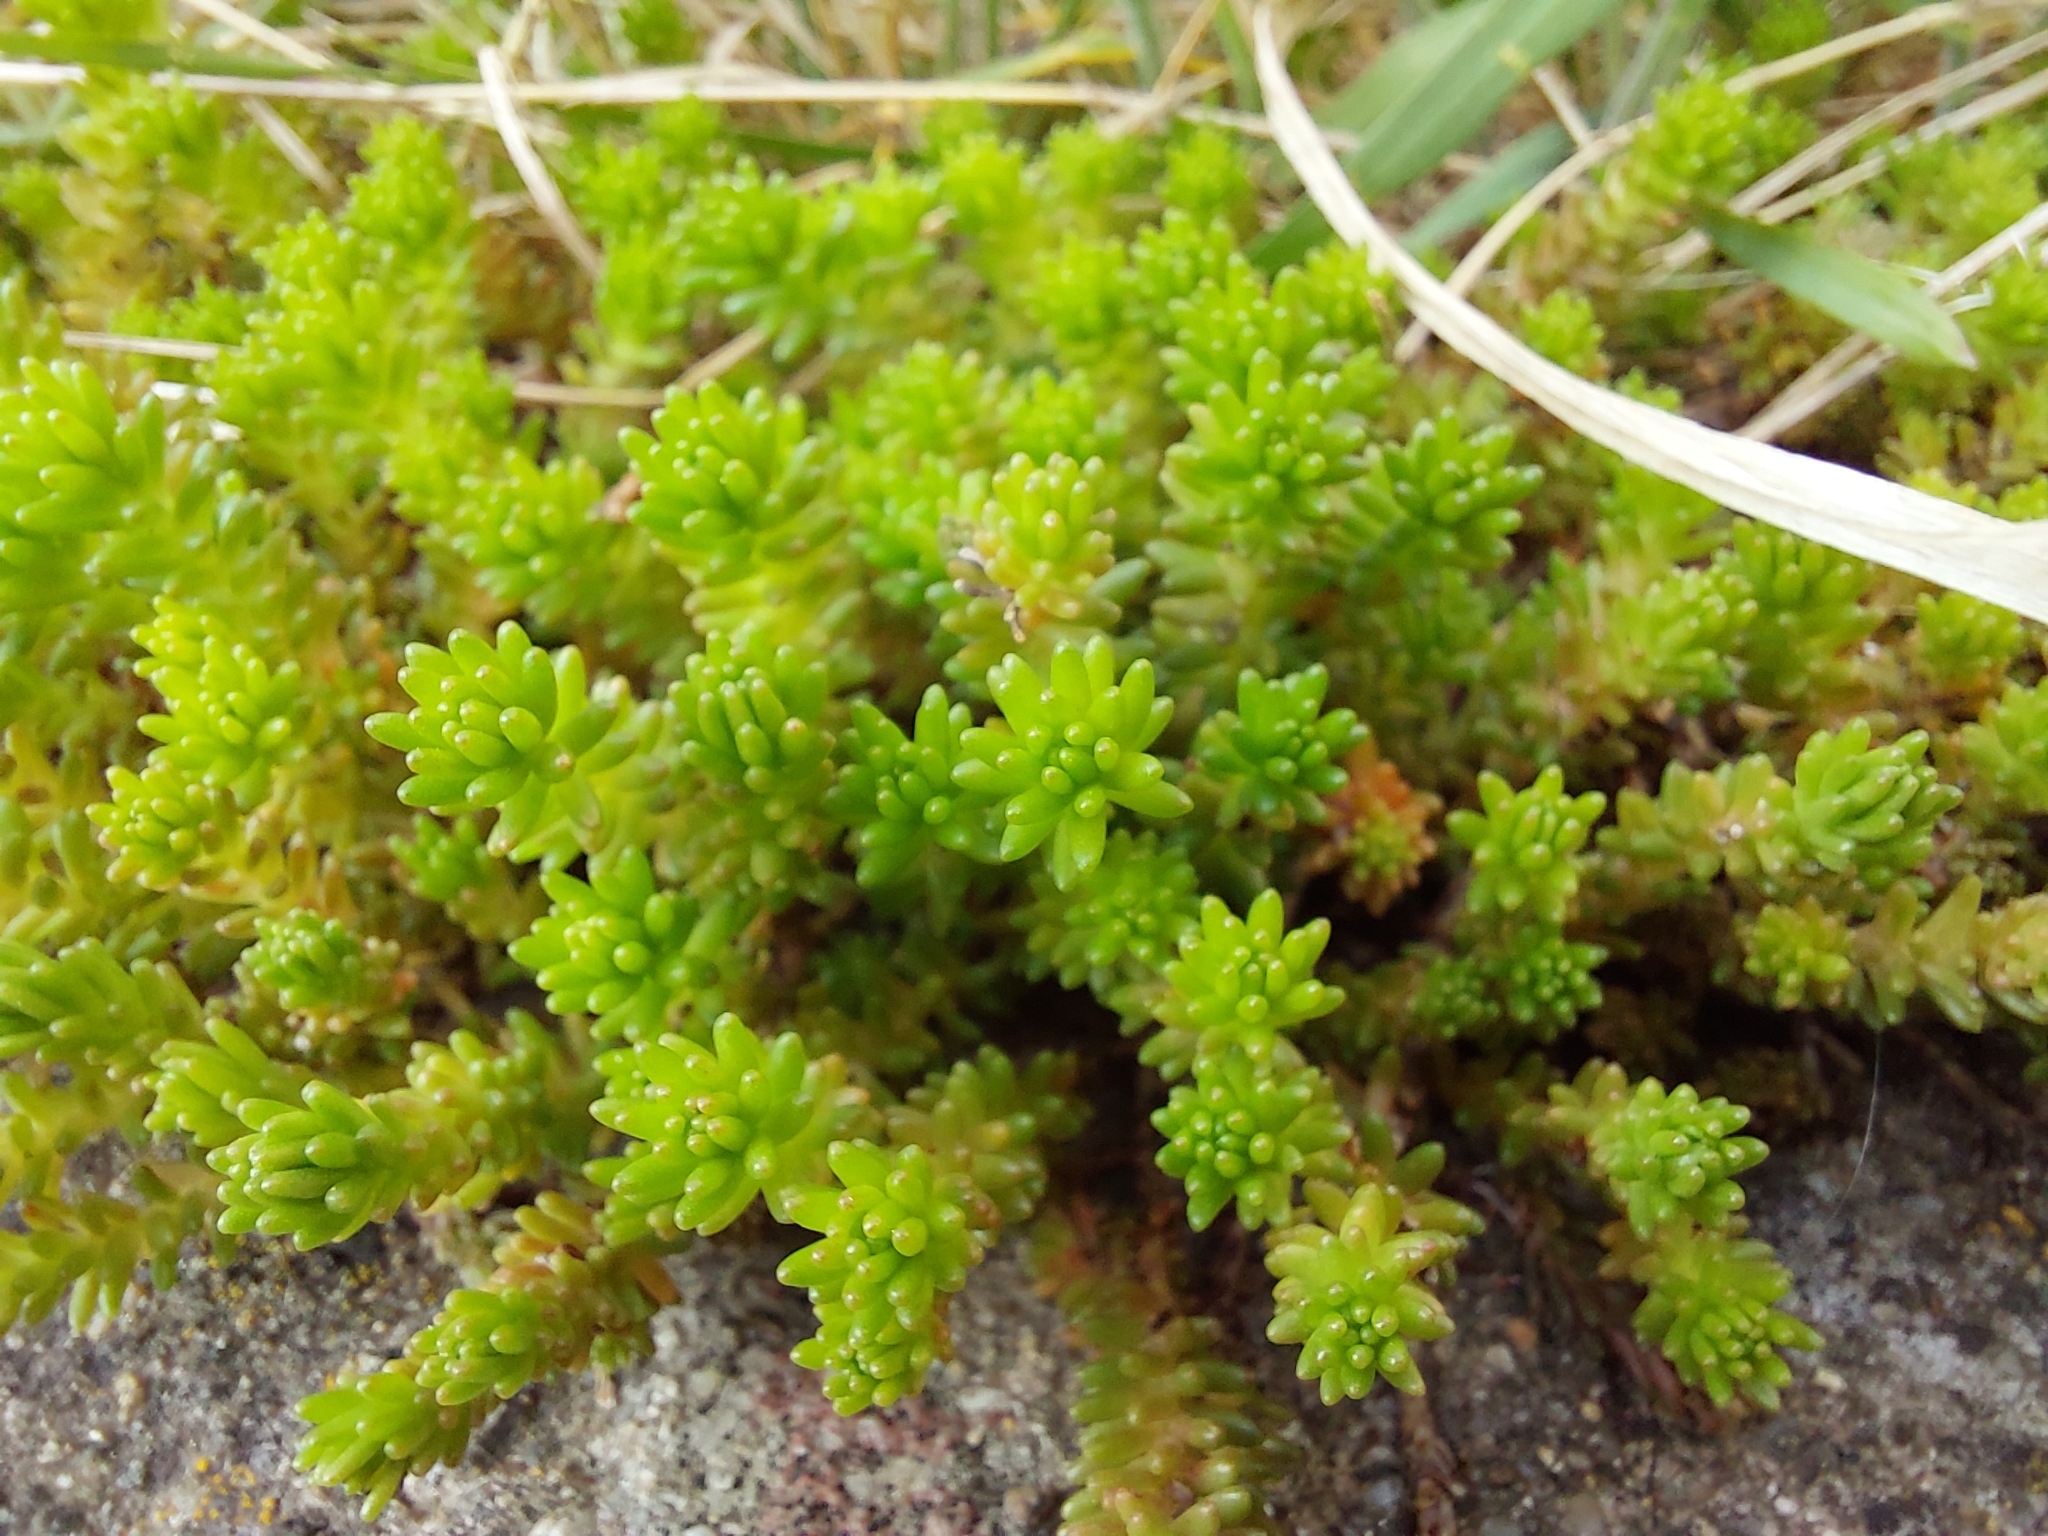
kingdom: Plantae
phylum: Tracheophyta
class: Magnoliopsida
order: Saxifragales
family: Crassulaceae
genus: Sedum
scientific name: Sedum sexangulare
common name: Tasteless stonecrop
